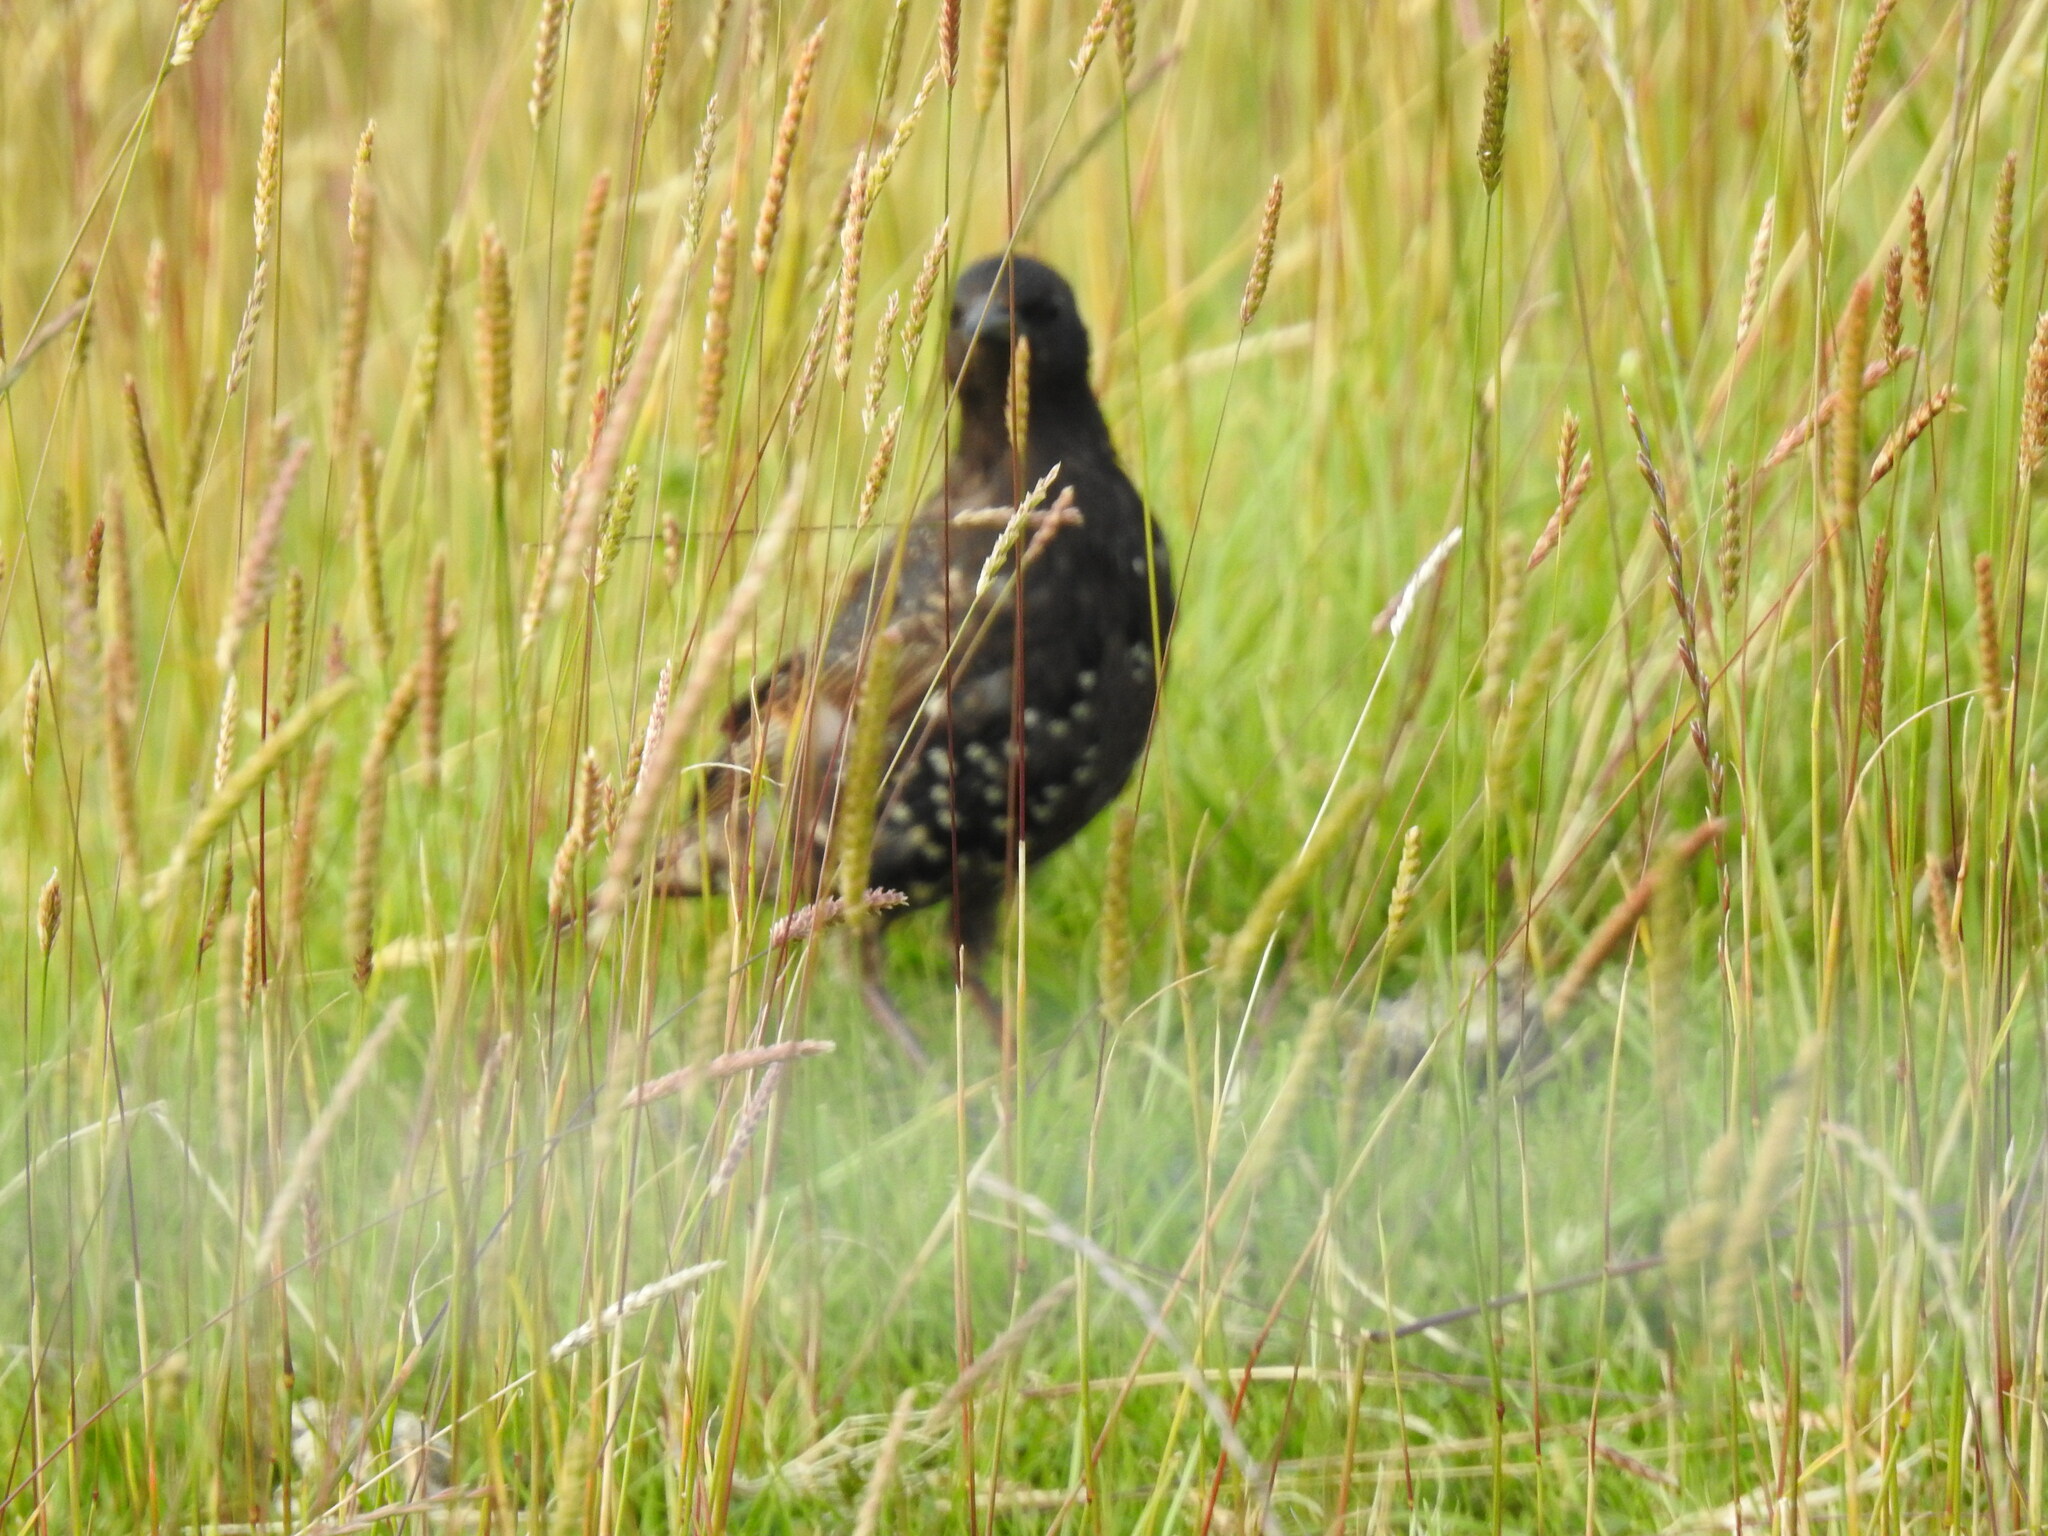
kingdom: Animalia
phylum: Chordata
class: Aves
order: Passeriformes
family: Sturnidae
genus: Sturnus
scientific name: Sturnus vulgaris
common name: Common starling
